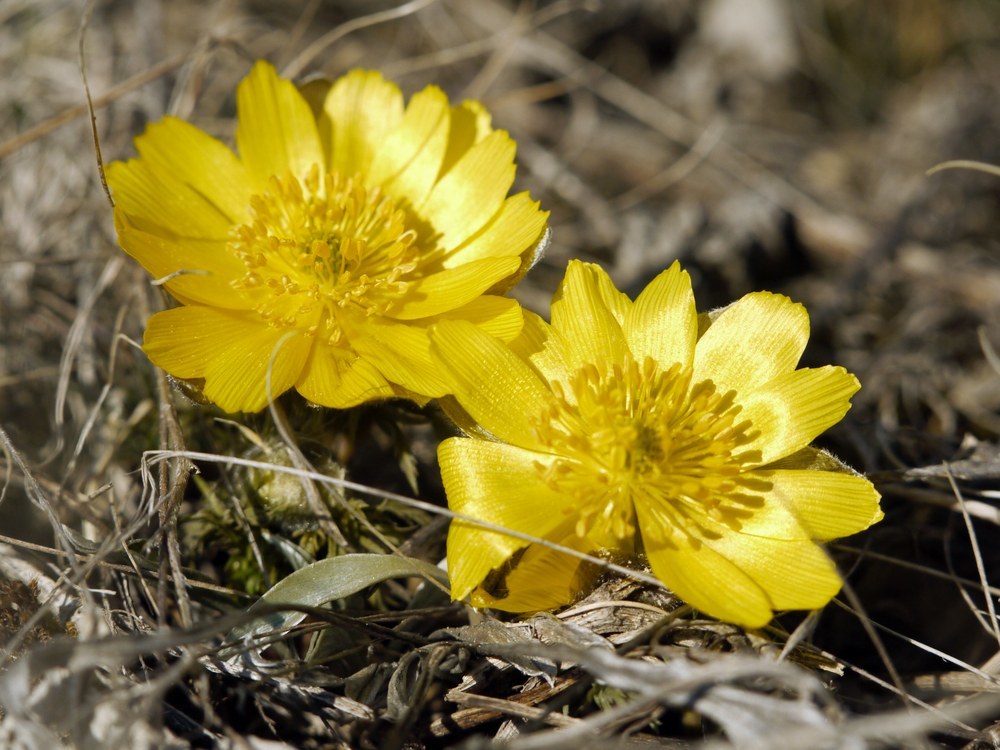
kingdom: Plantae
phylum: Tracheophyta
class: Magnoliopsida
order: Ranunculales
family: Ranunculaceae
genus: Adonis
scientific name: Adonis vernalis
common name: Yellow pheasants-eye
